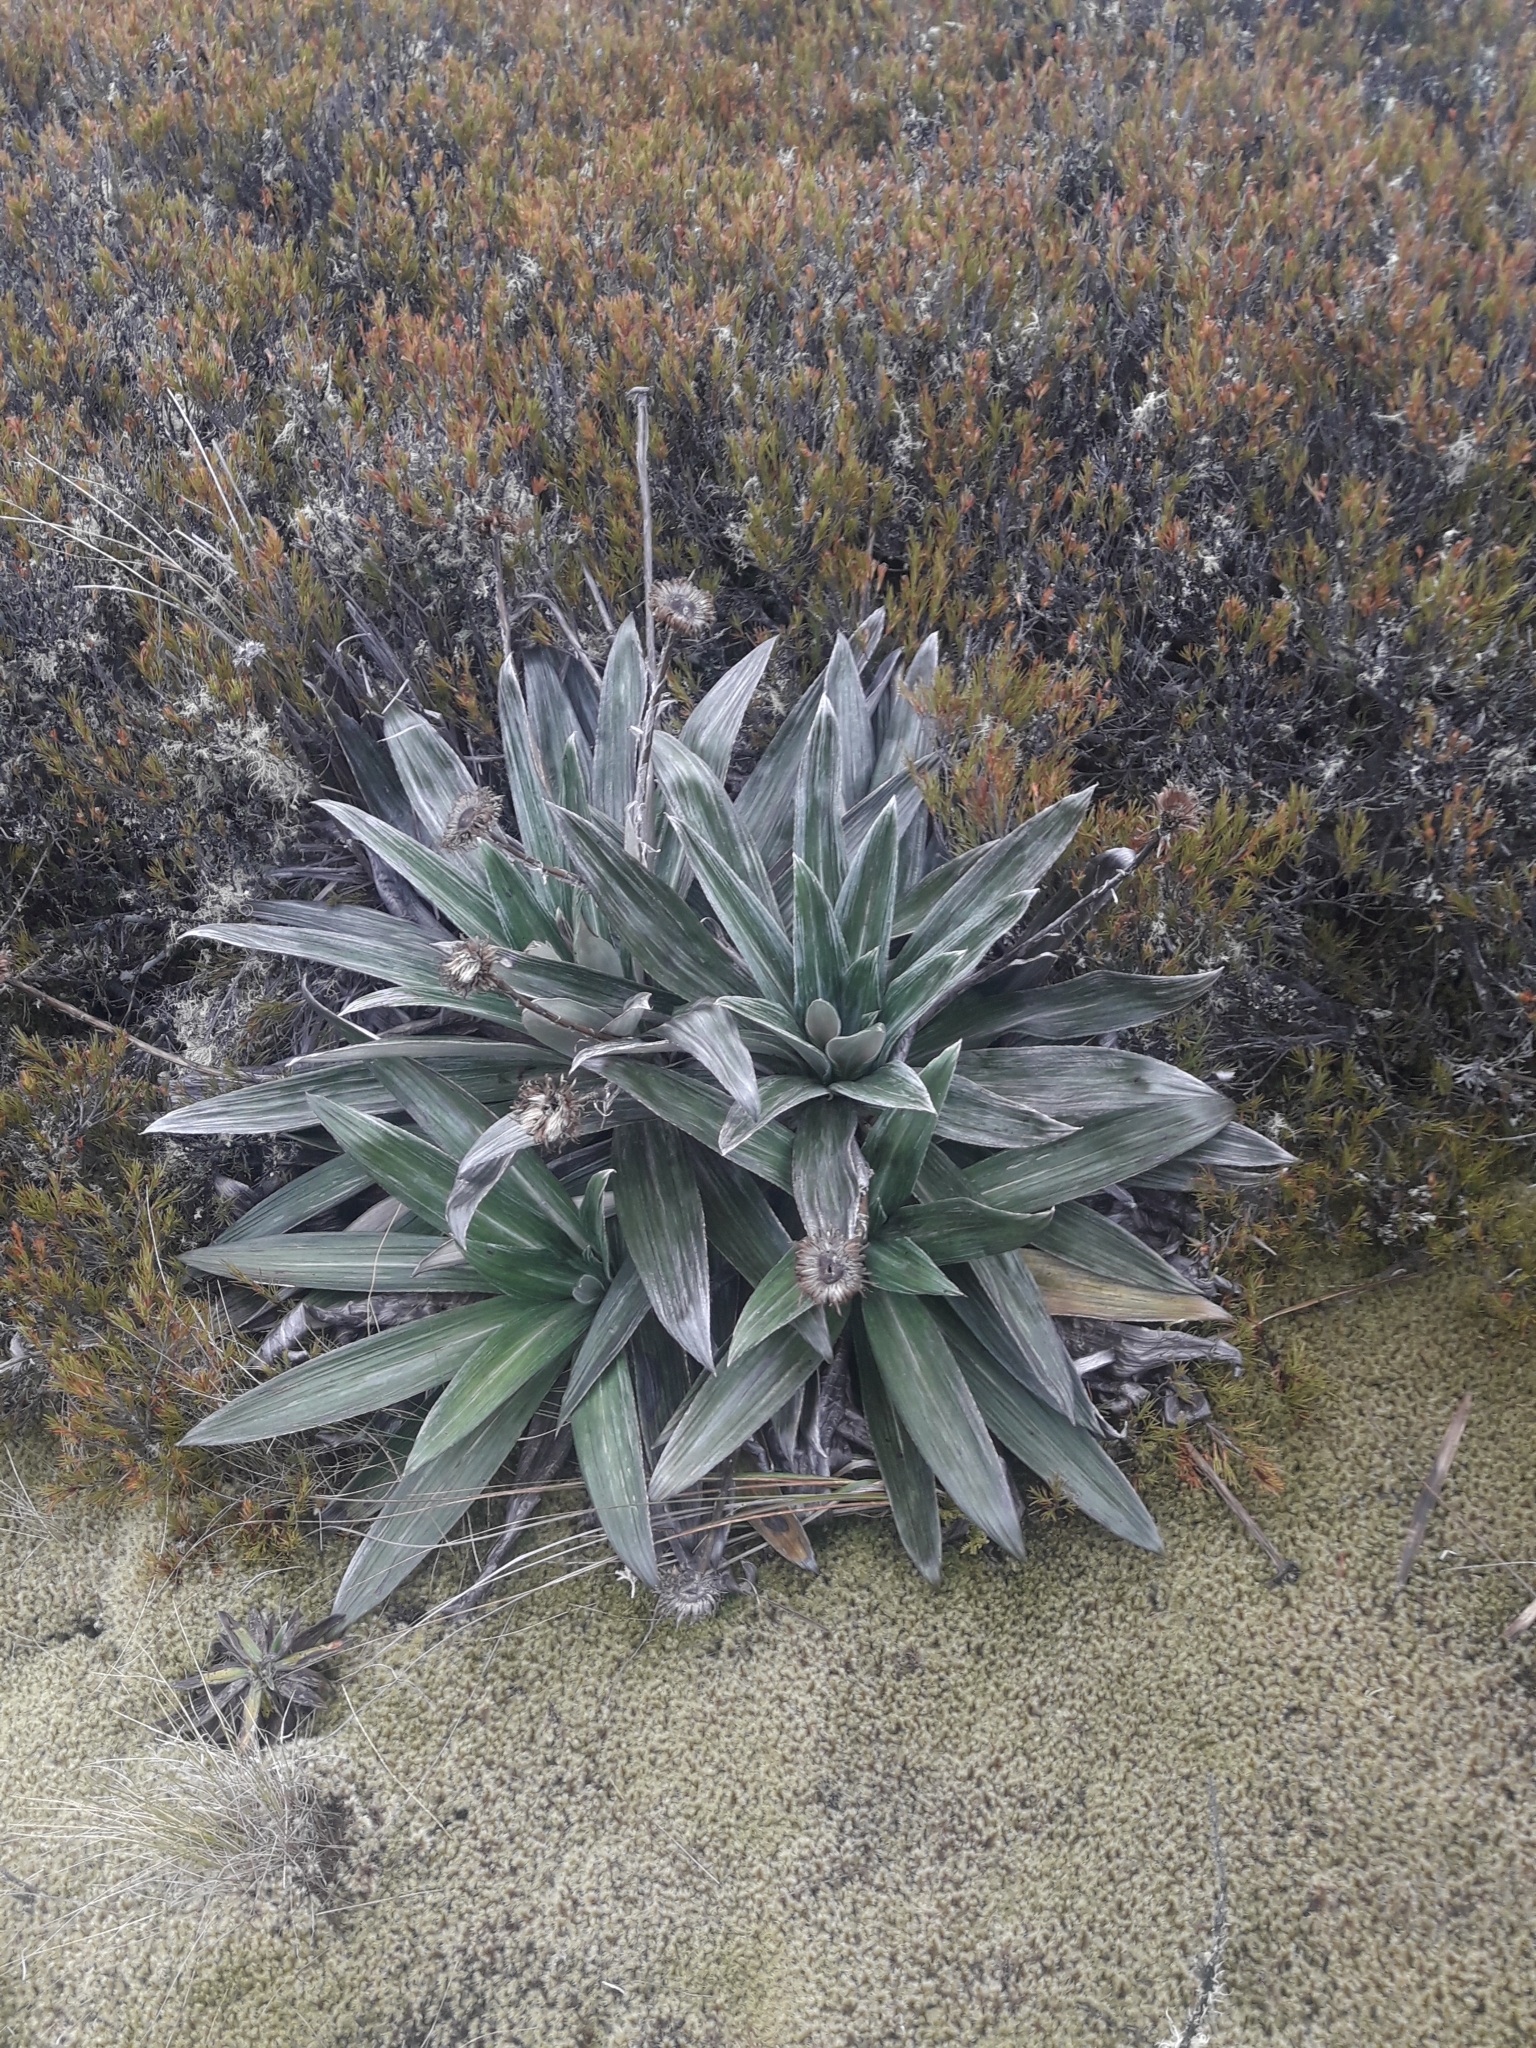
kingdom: Plantae
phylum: Tracheophyta
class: Magnoliopsida
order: Asterales
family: Asteraceae
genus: Celmisia
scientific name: Celmisia semicordata
